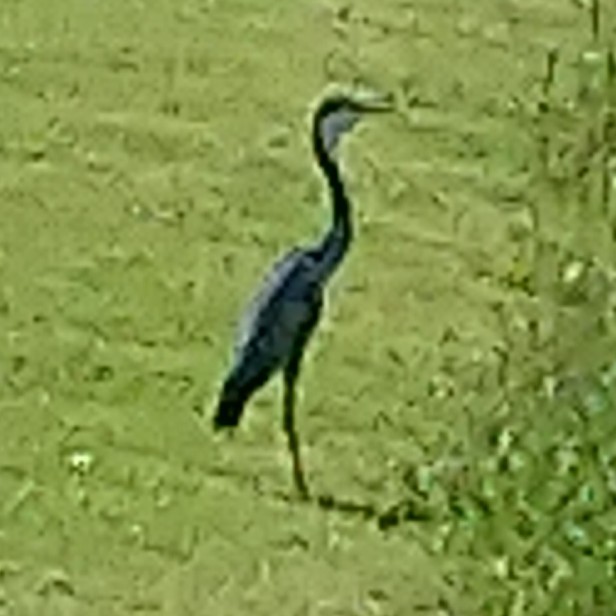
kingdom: Animalia
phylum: Chordata
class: Aves
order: Pelecaniformes
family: Ardeidae
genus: Ardea
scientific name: Ardea melanocephala
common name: Black-headed heron
